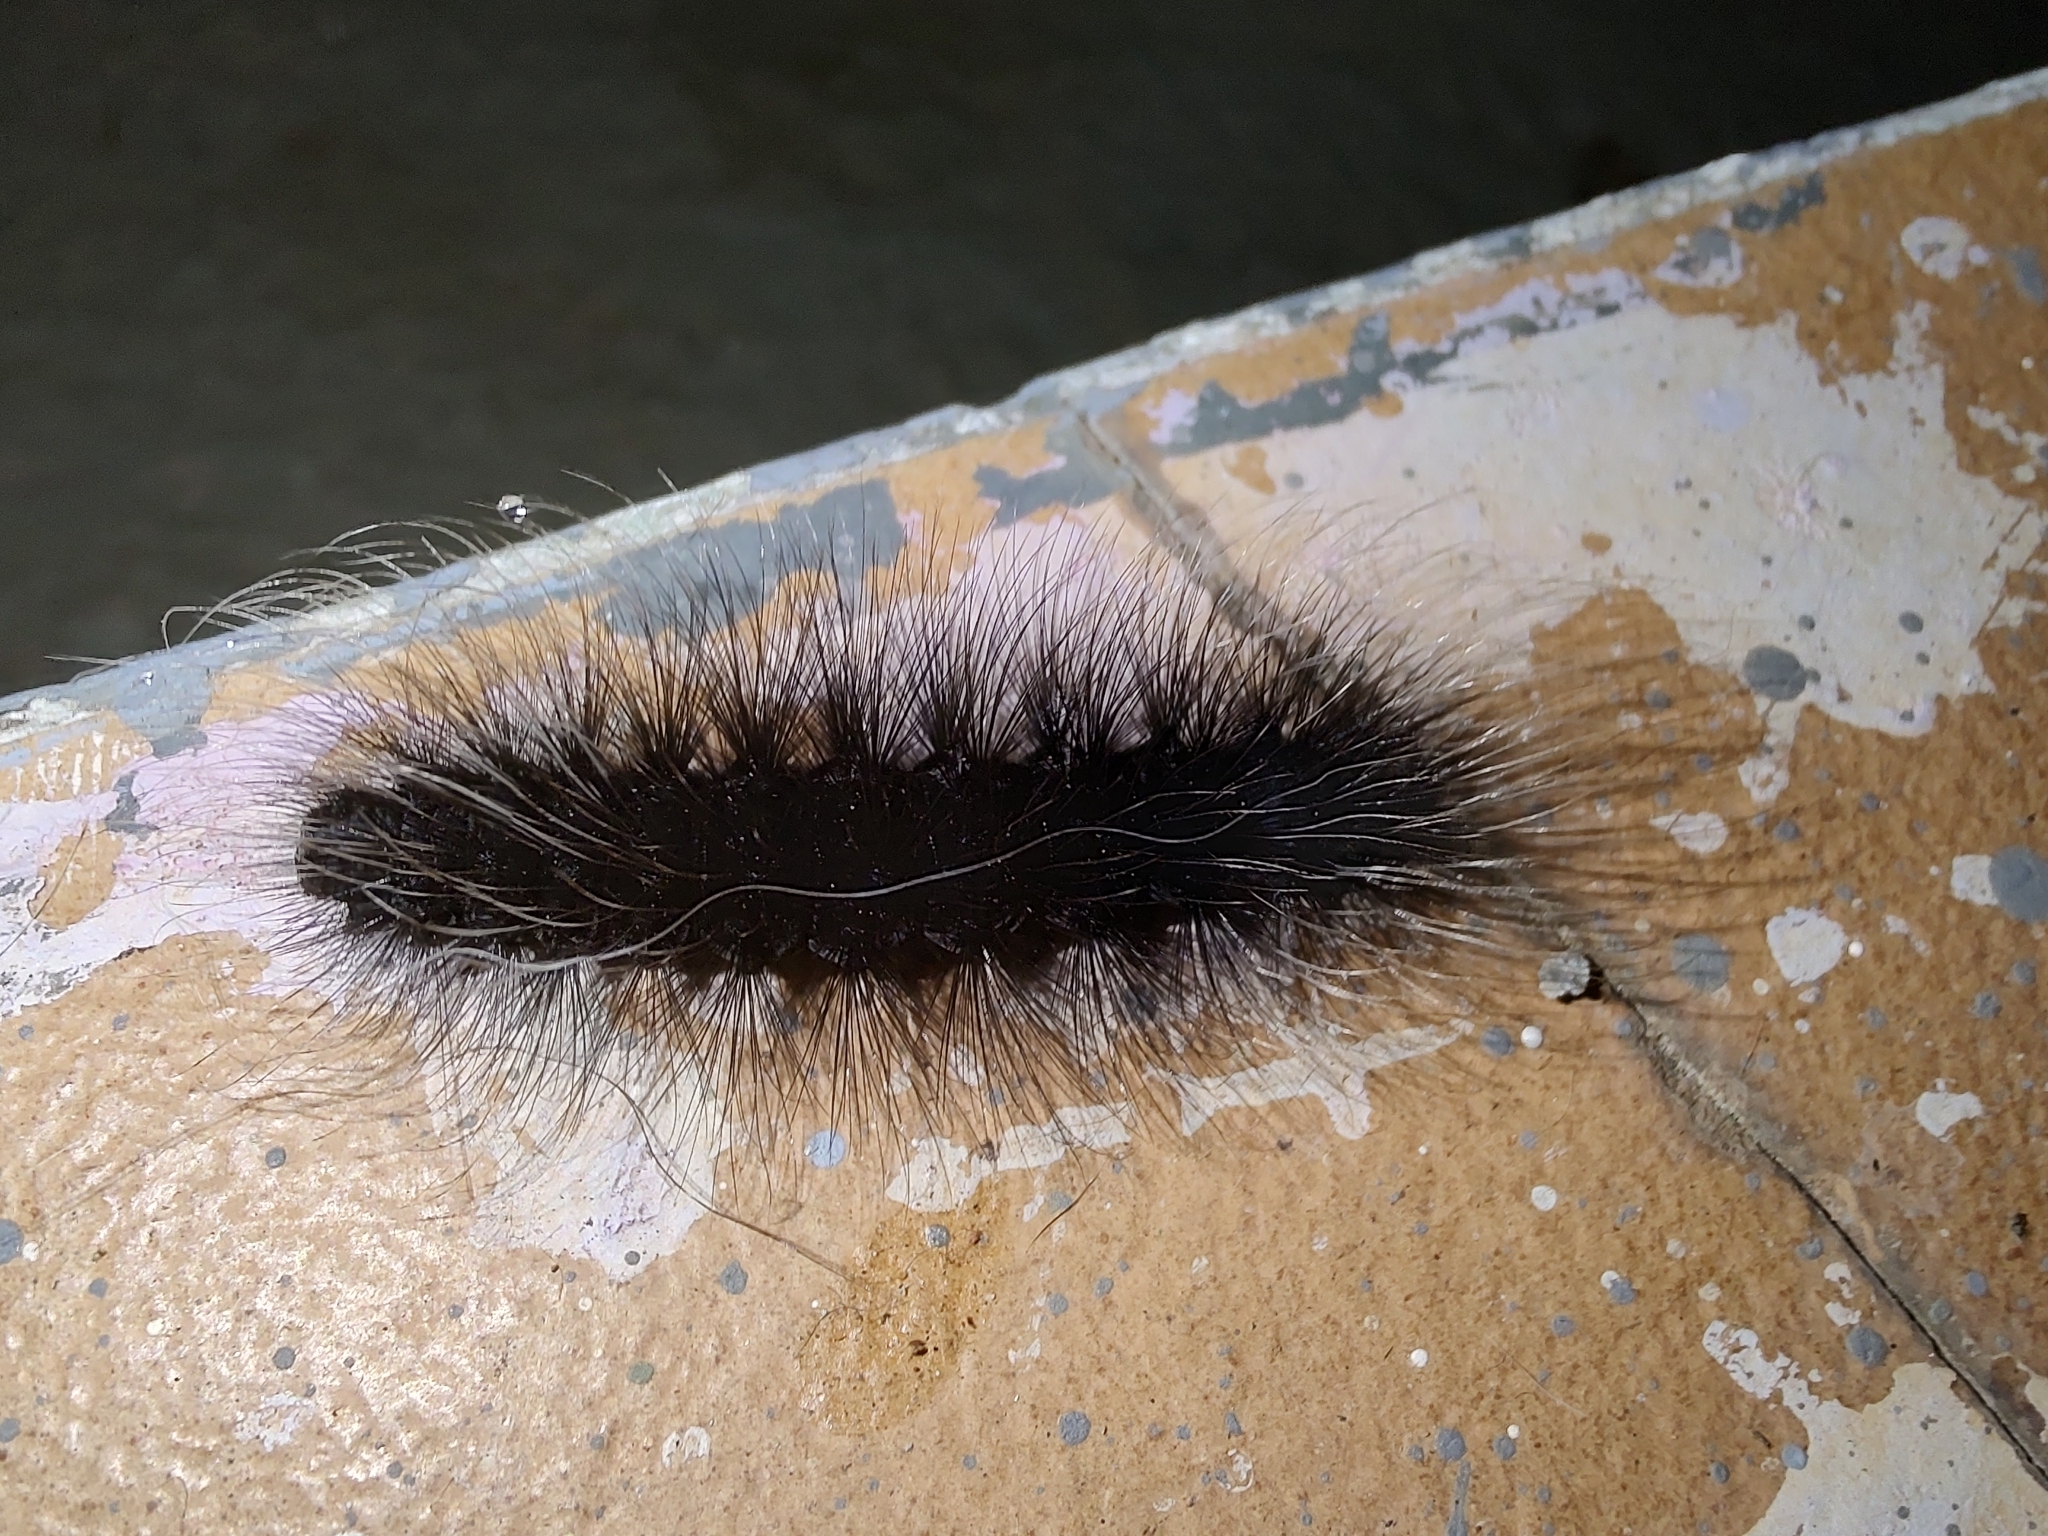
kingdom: Animalia
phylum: Arthropoda
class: Insecta
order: Lepidoptera
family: Erebidae
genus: Apistosia
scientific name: Apistosia judas
